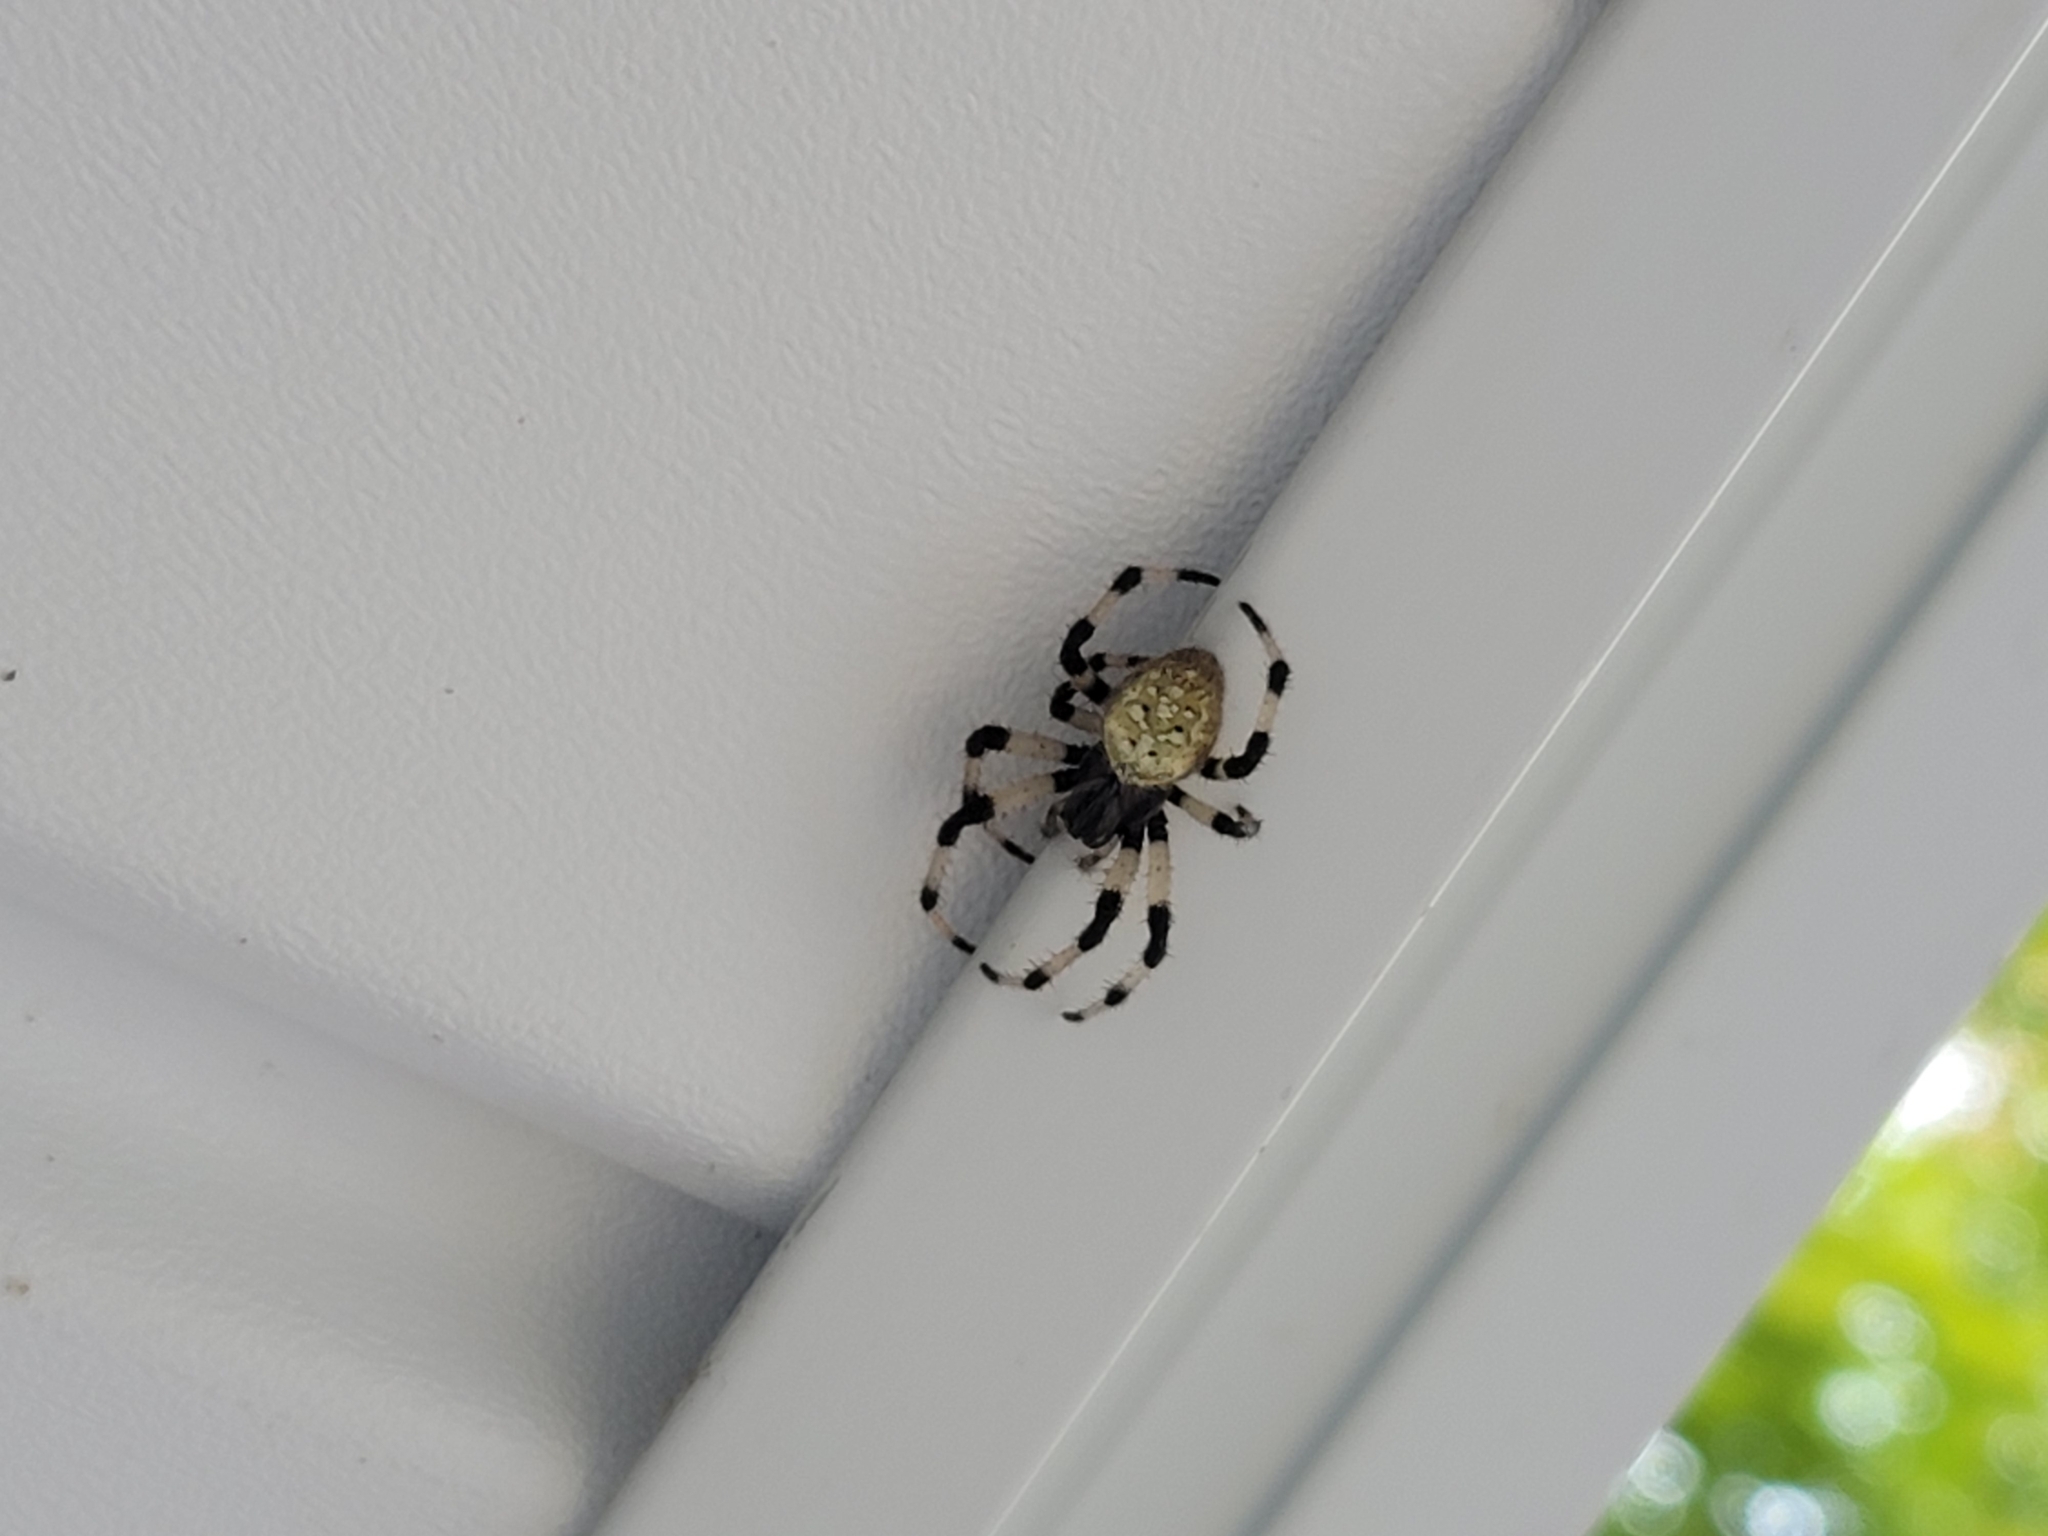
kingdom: Animalia
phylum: Arthropoda
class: Arachnida
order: Araneae
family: Araneidae
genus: Araneus
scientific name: Araneus trifolium
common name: Shamrock orbweaver
